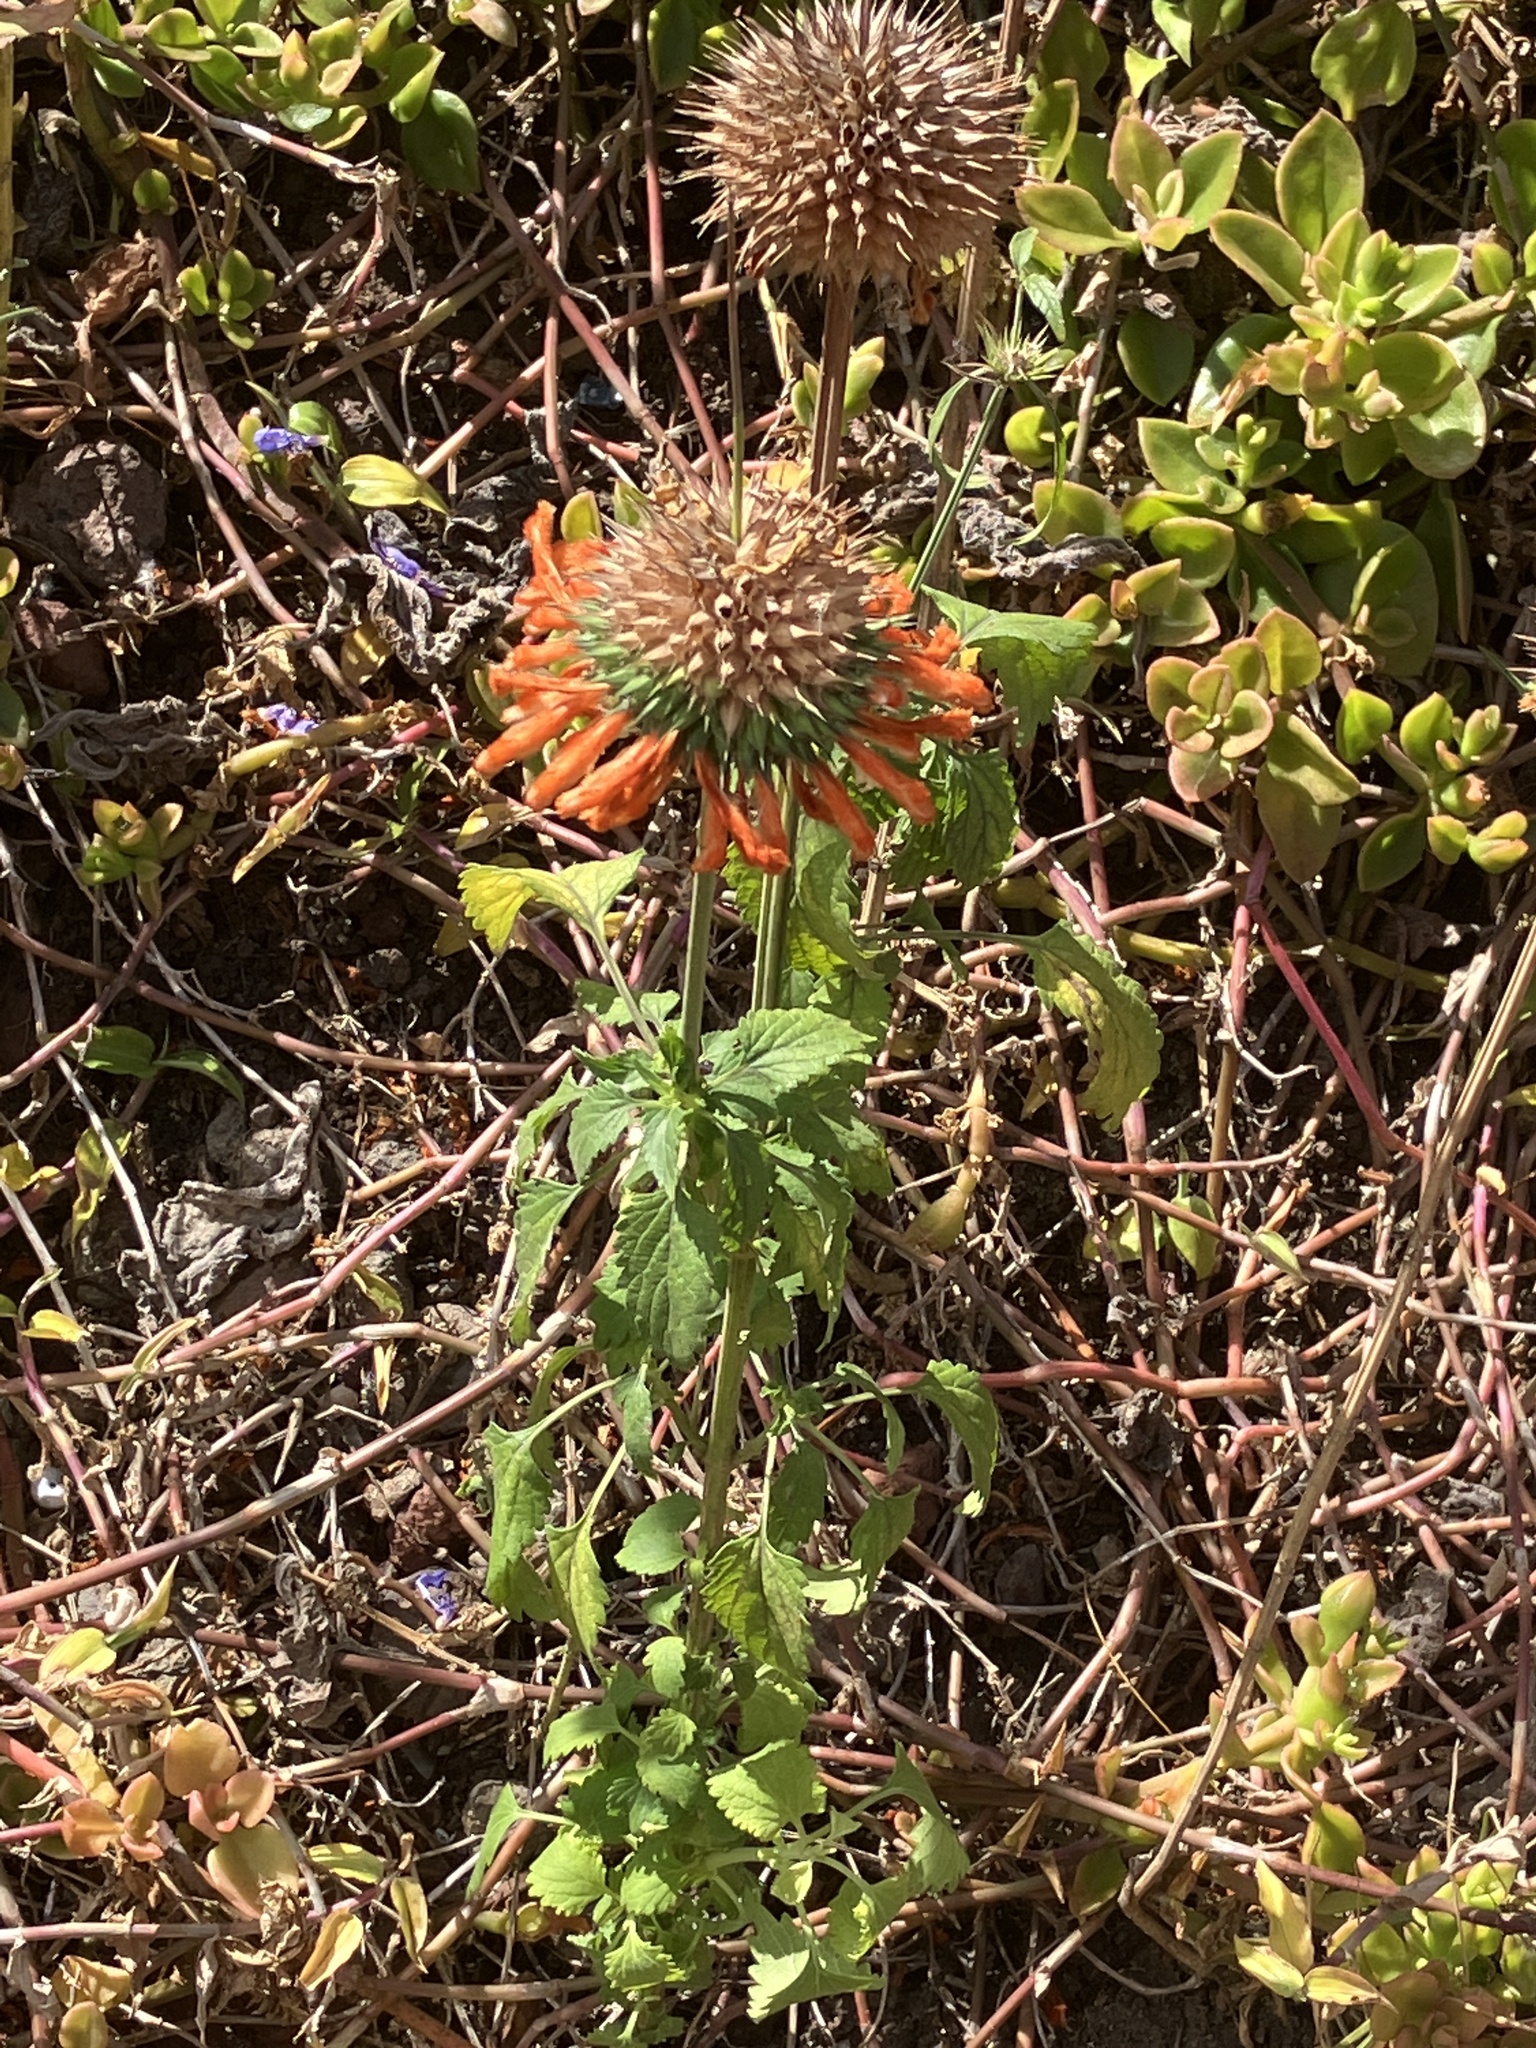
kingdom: Plantae
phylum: Tracheophyta
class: Magnoliopsida
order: Lamiales
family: Lamiaceae
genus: Leonotis
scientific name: Leonotis nepetifolia
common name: Christmas candlestick
